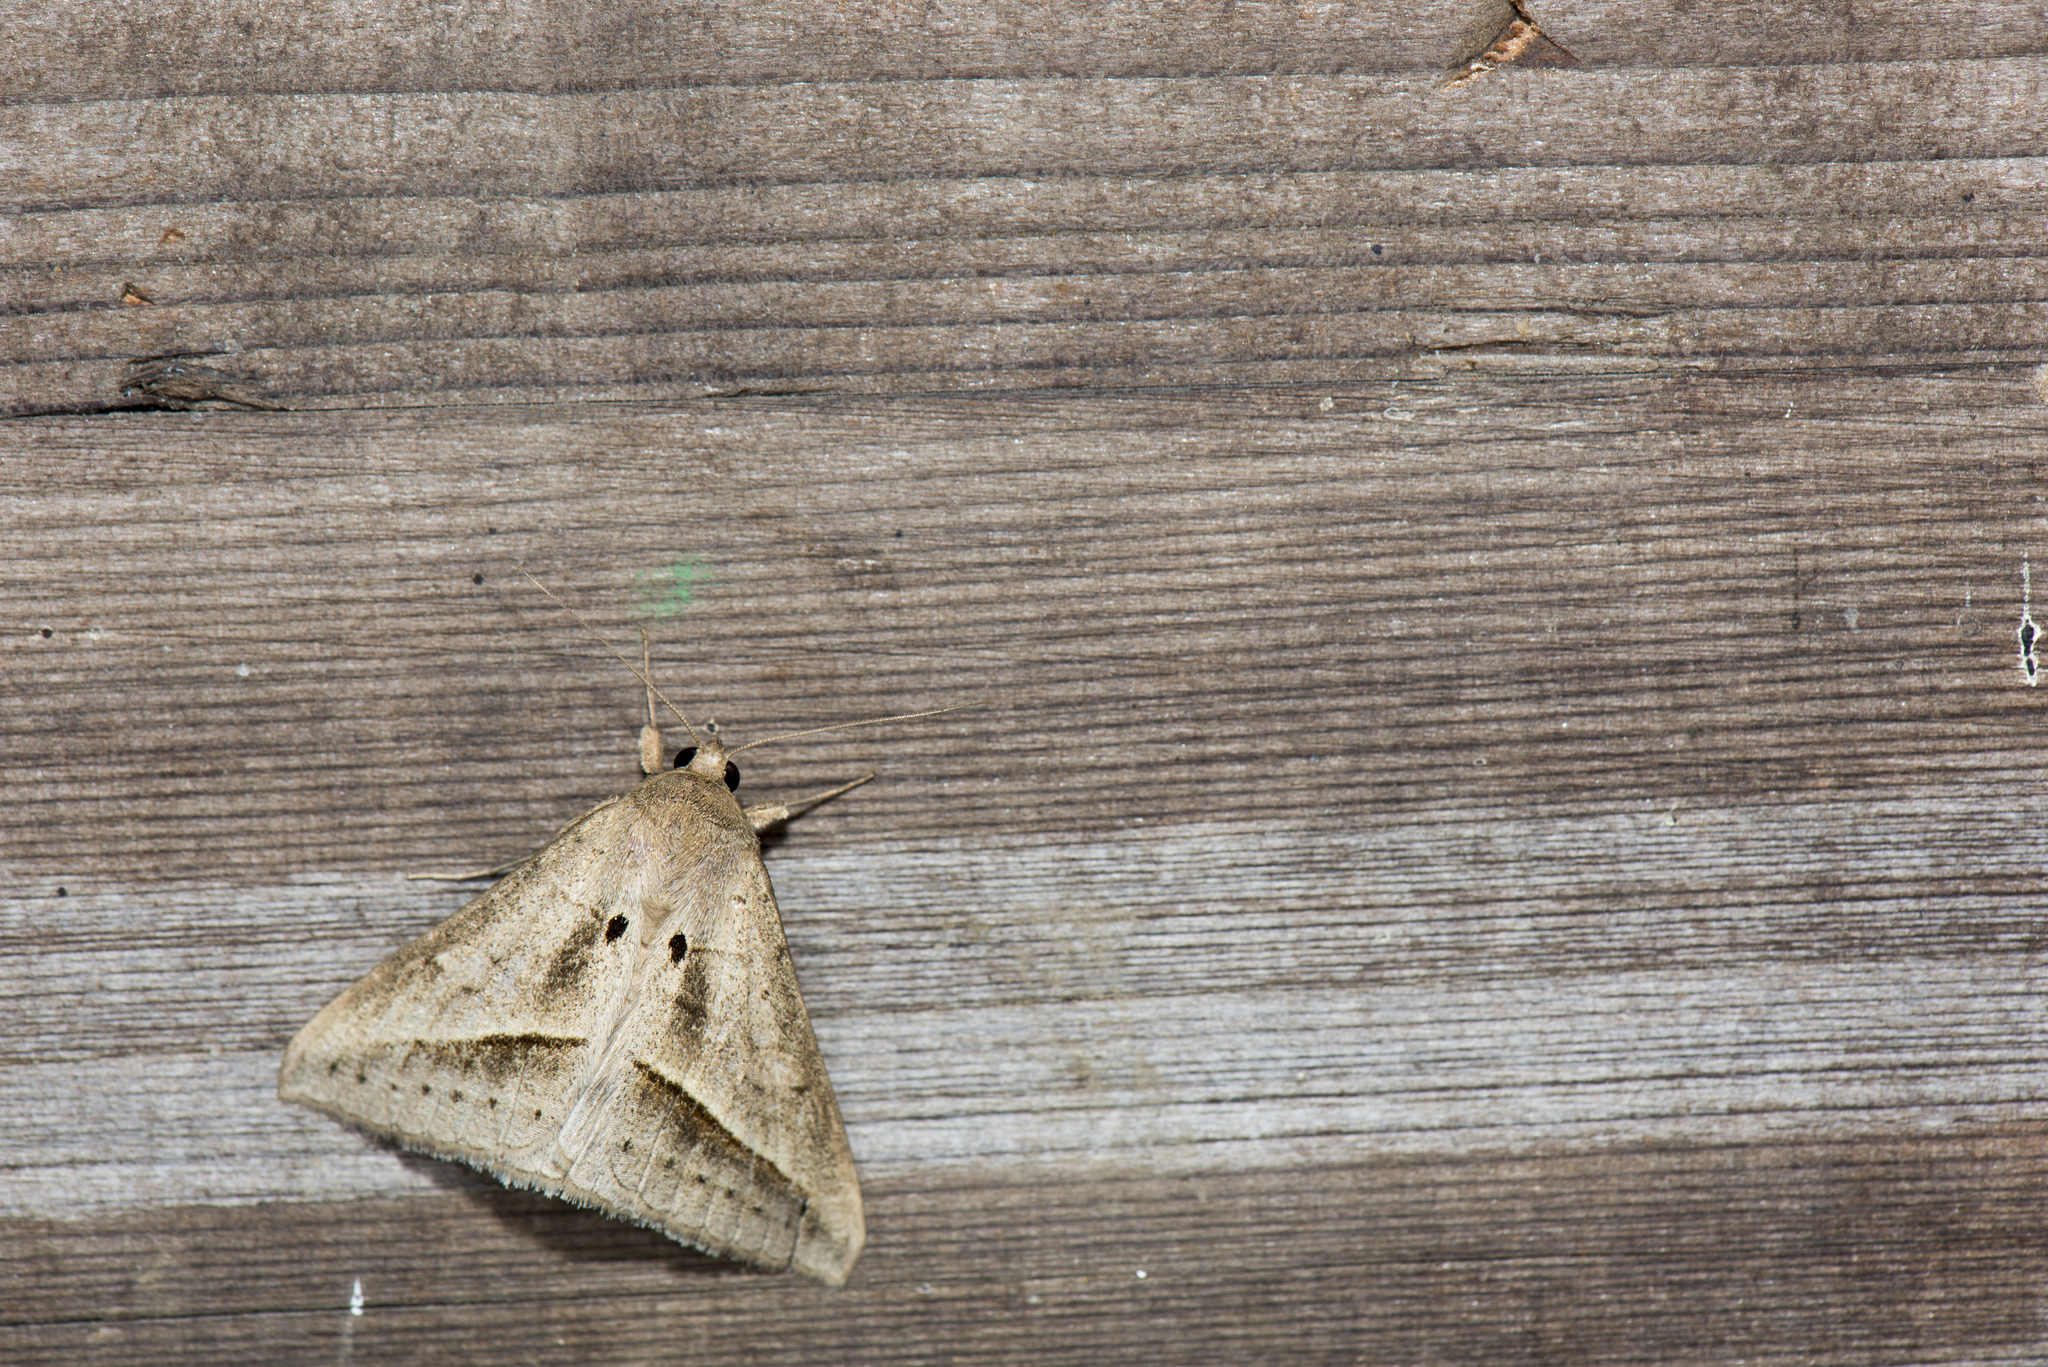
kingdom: Animalia
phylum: Arthropoda
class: Insecta
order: Lepidoptera
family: Erebidae
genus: Mocis
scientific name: Mocis frugalis
